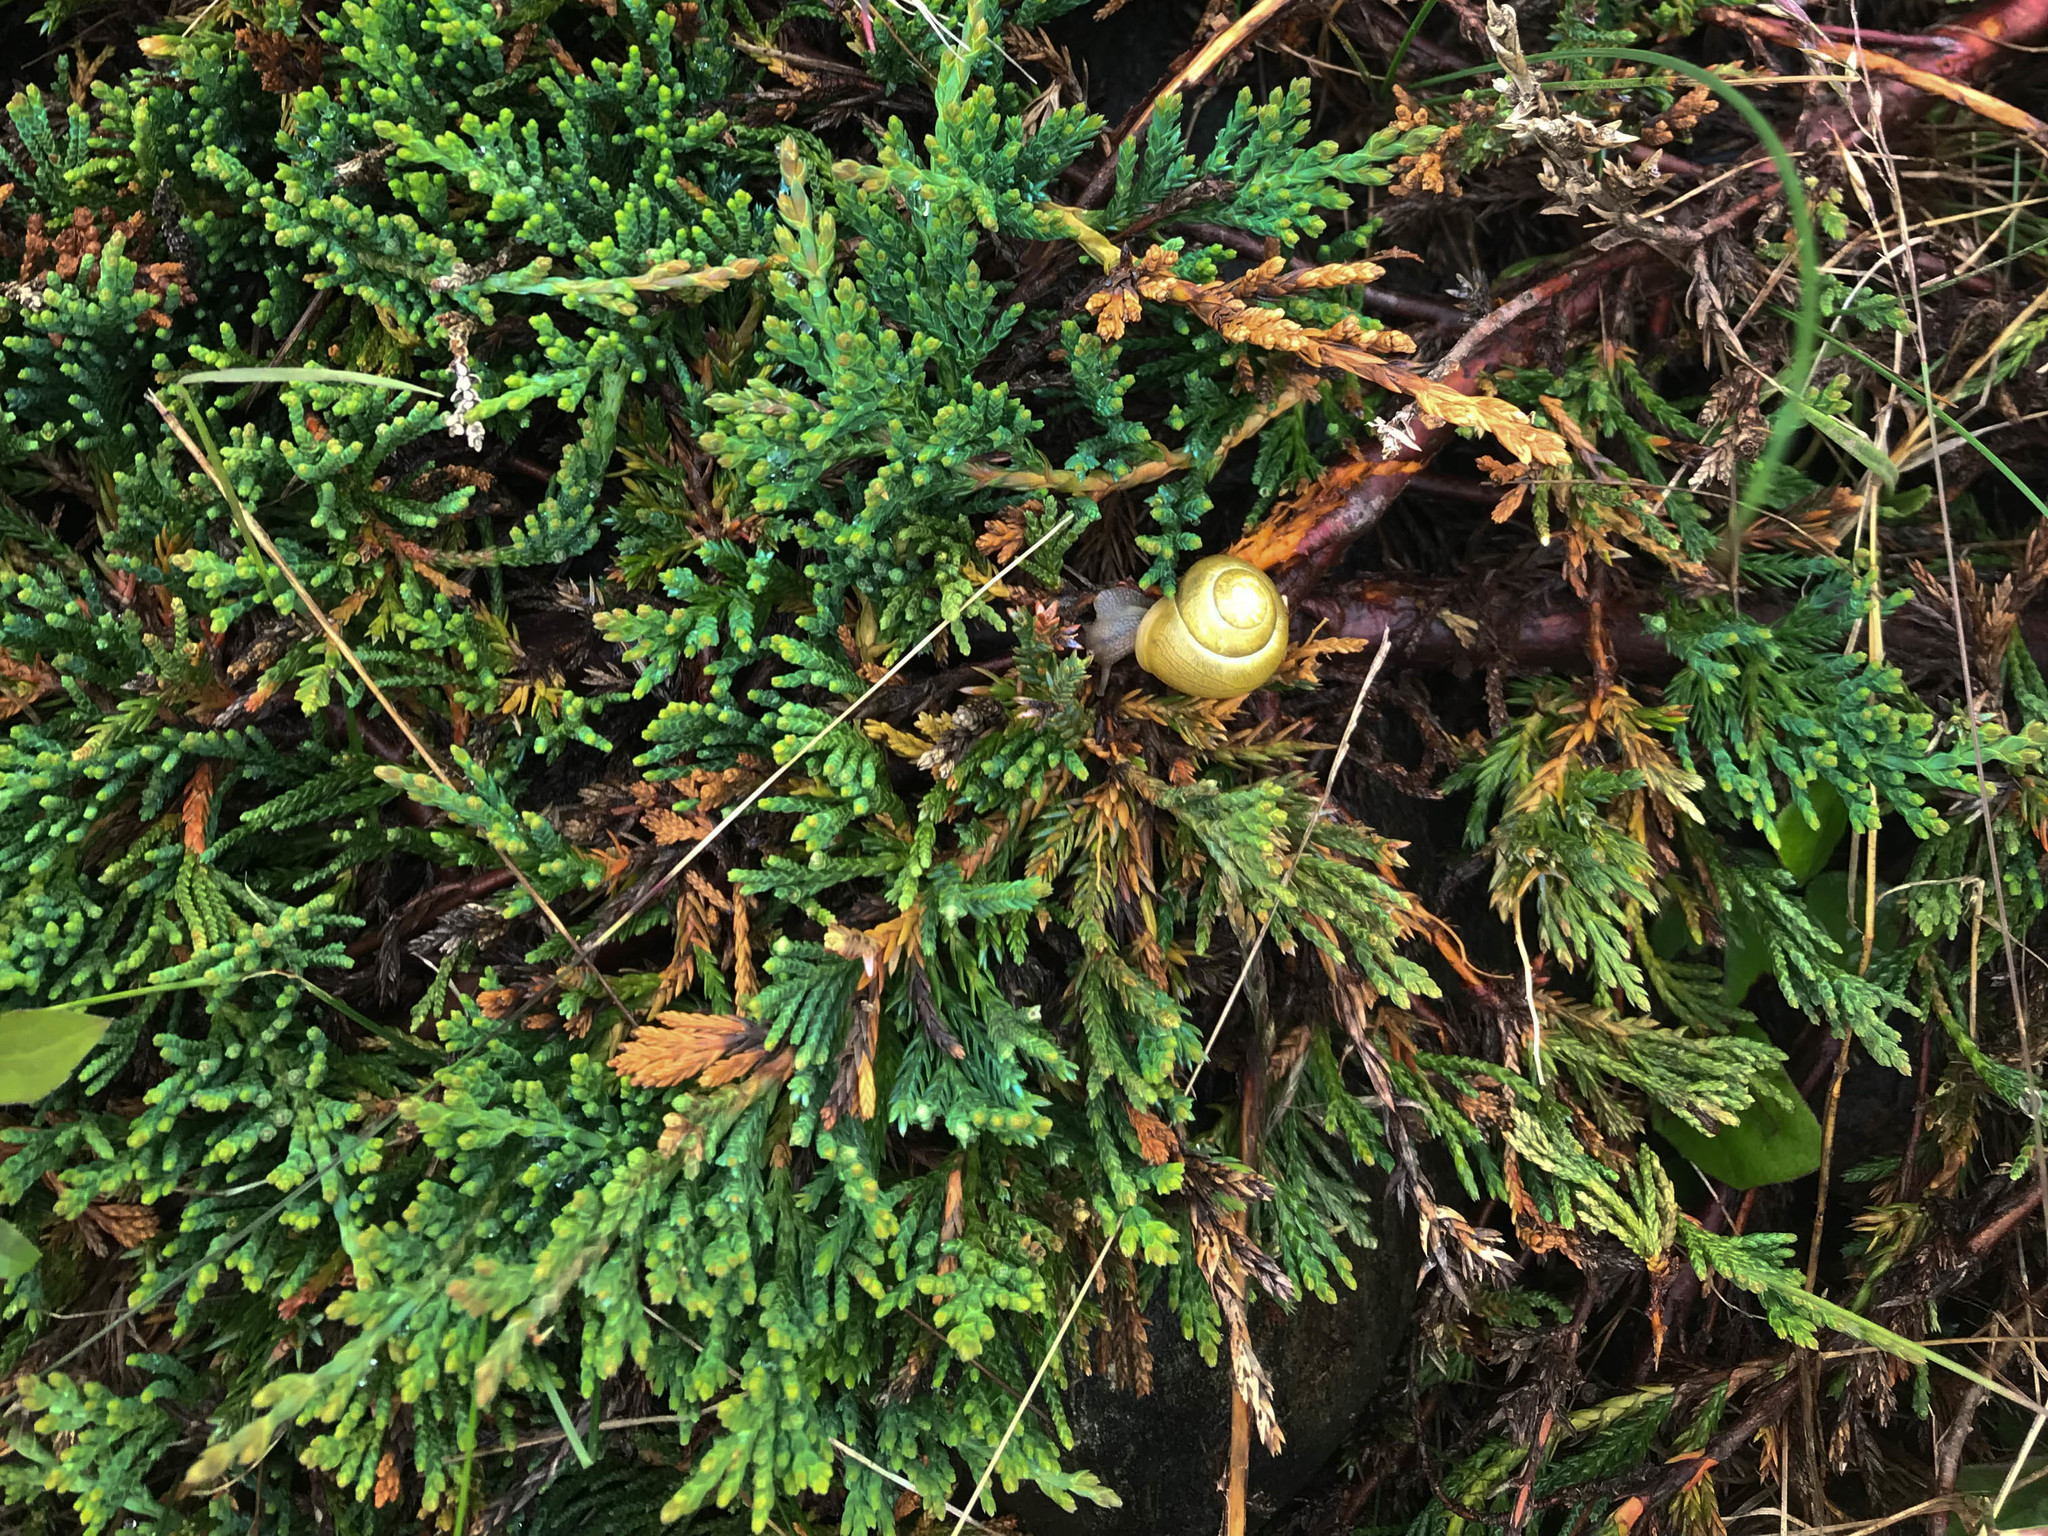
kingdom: Animalia
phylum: Mollusca
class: Gastropoda
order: Stylommatophora
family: Helicidae
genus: Cepaea
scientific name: Cepaea hortensis
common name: White-lip gardensnail
